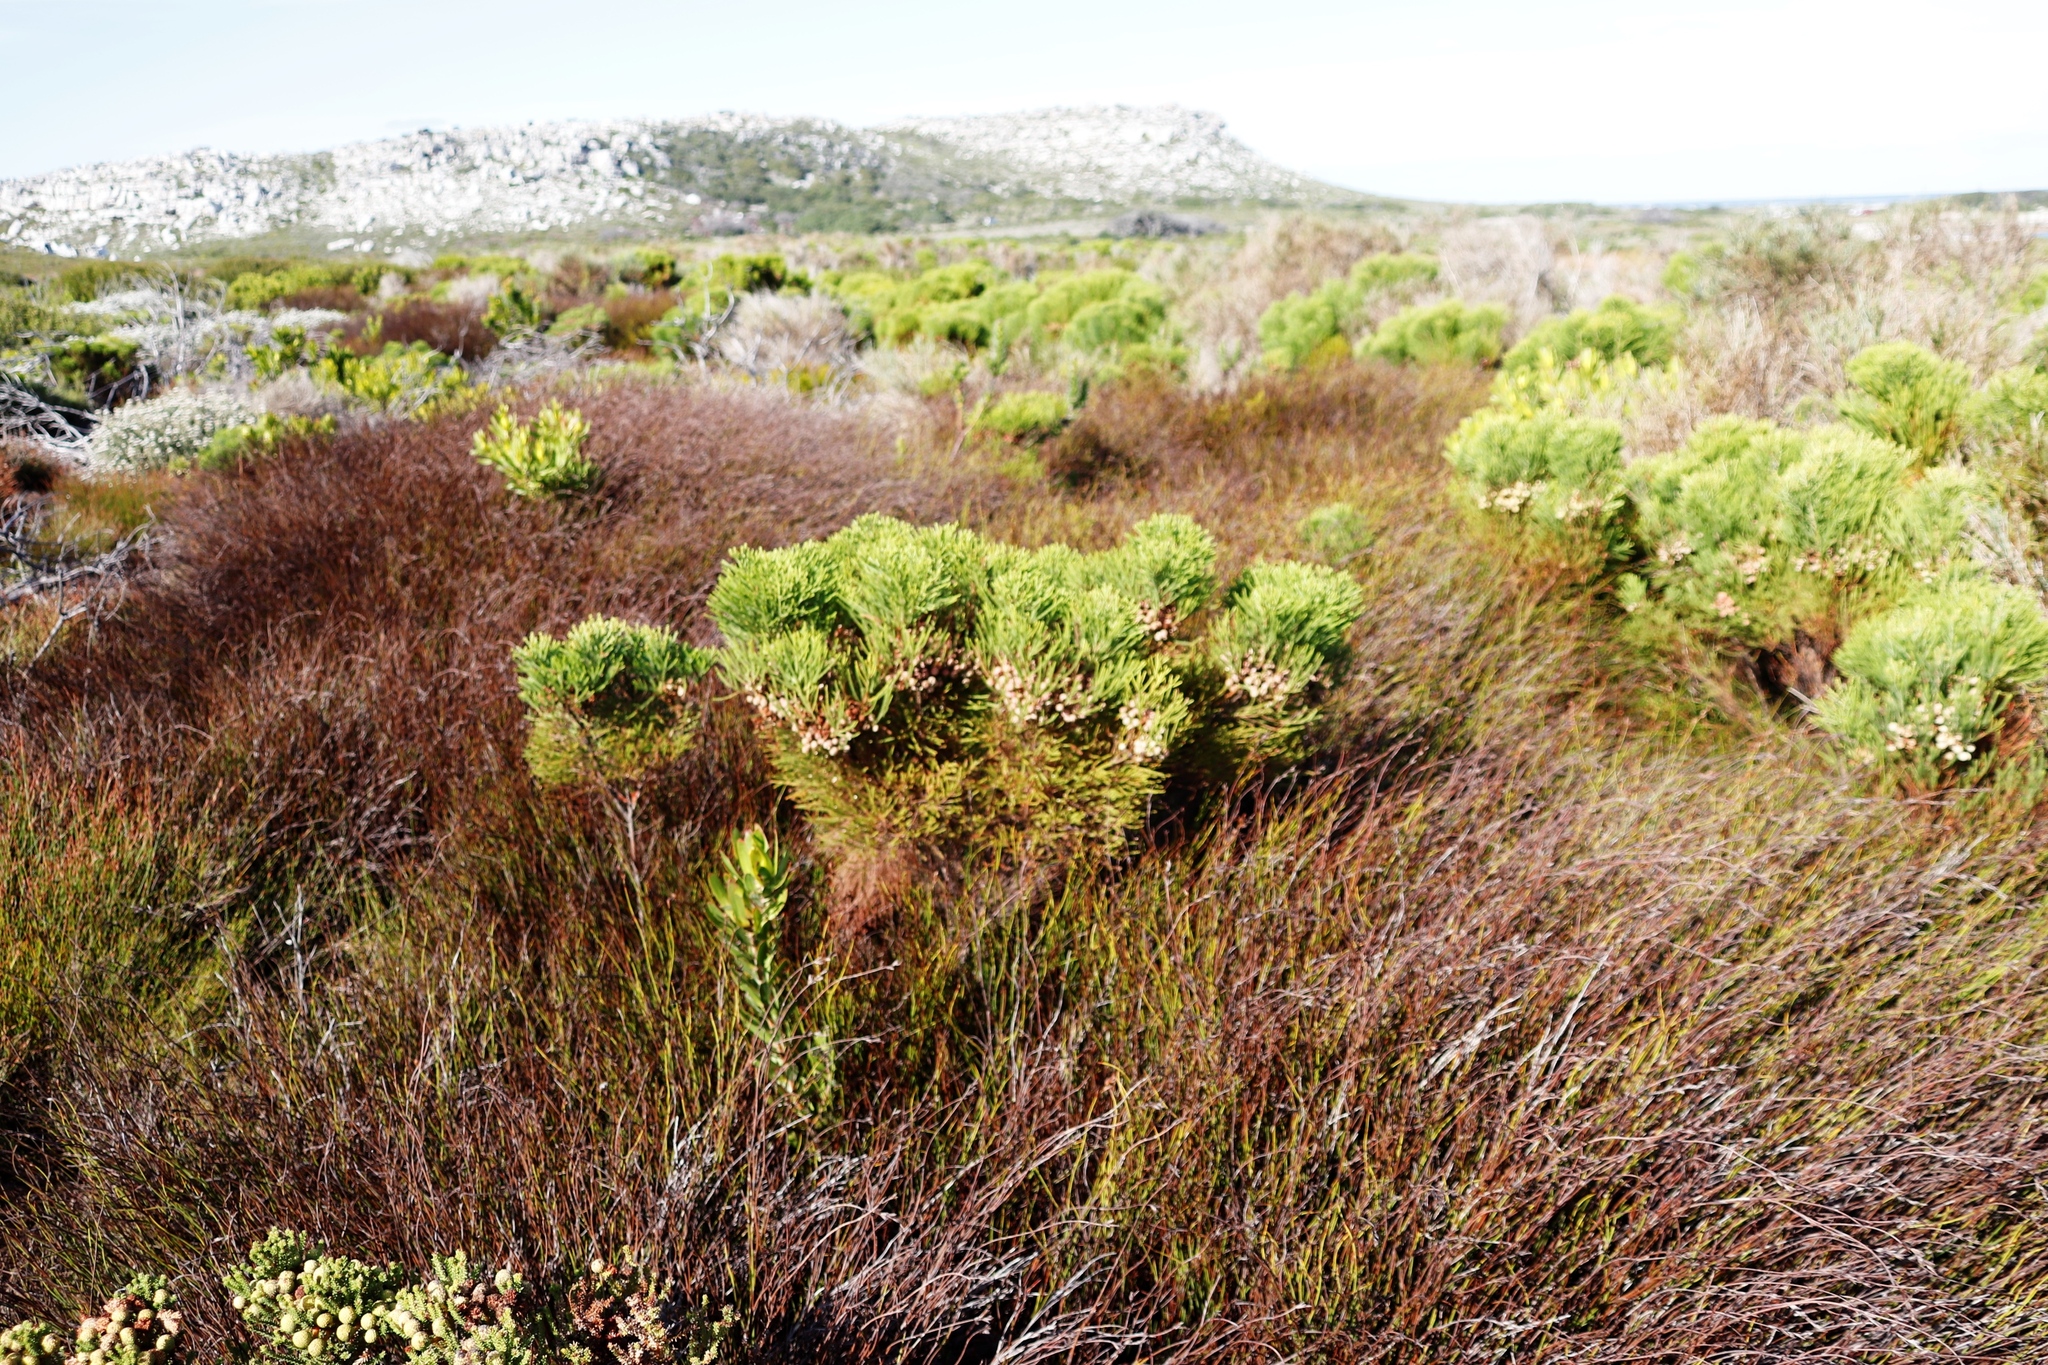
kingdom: Plantae
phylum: Tracheophyta
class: Magnoliopsida
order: Bruniales
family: Bruniaceae
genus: Berzelia
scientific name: Berzelia lanuginosa
